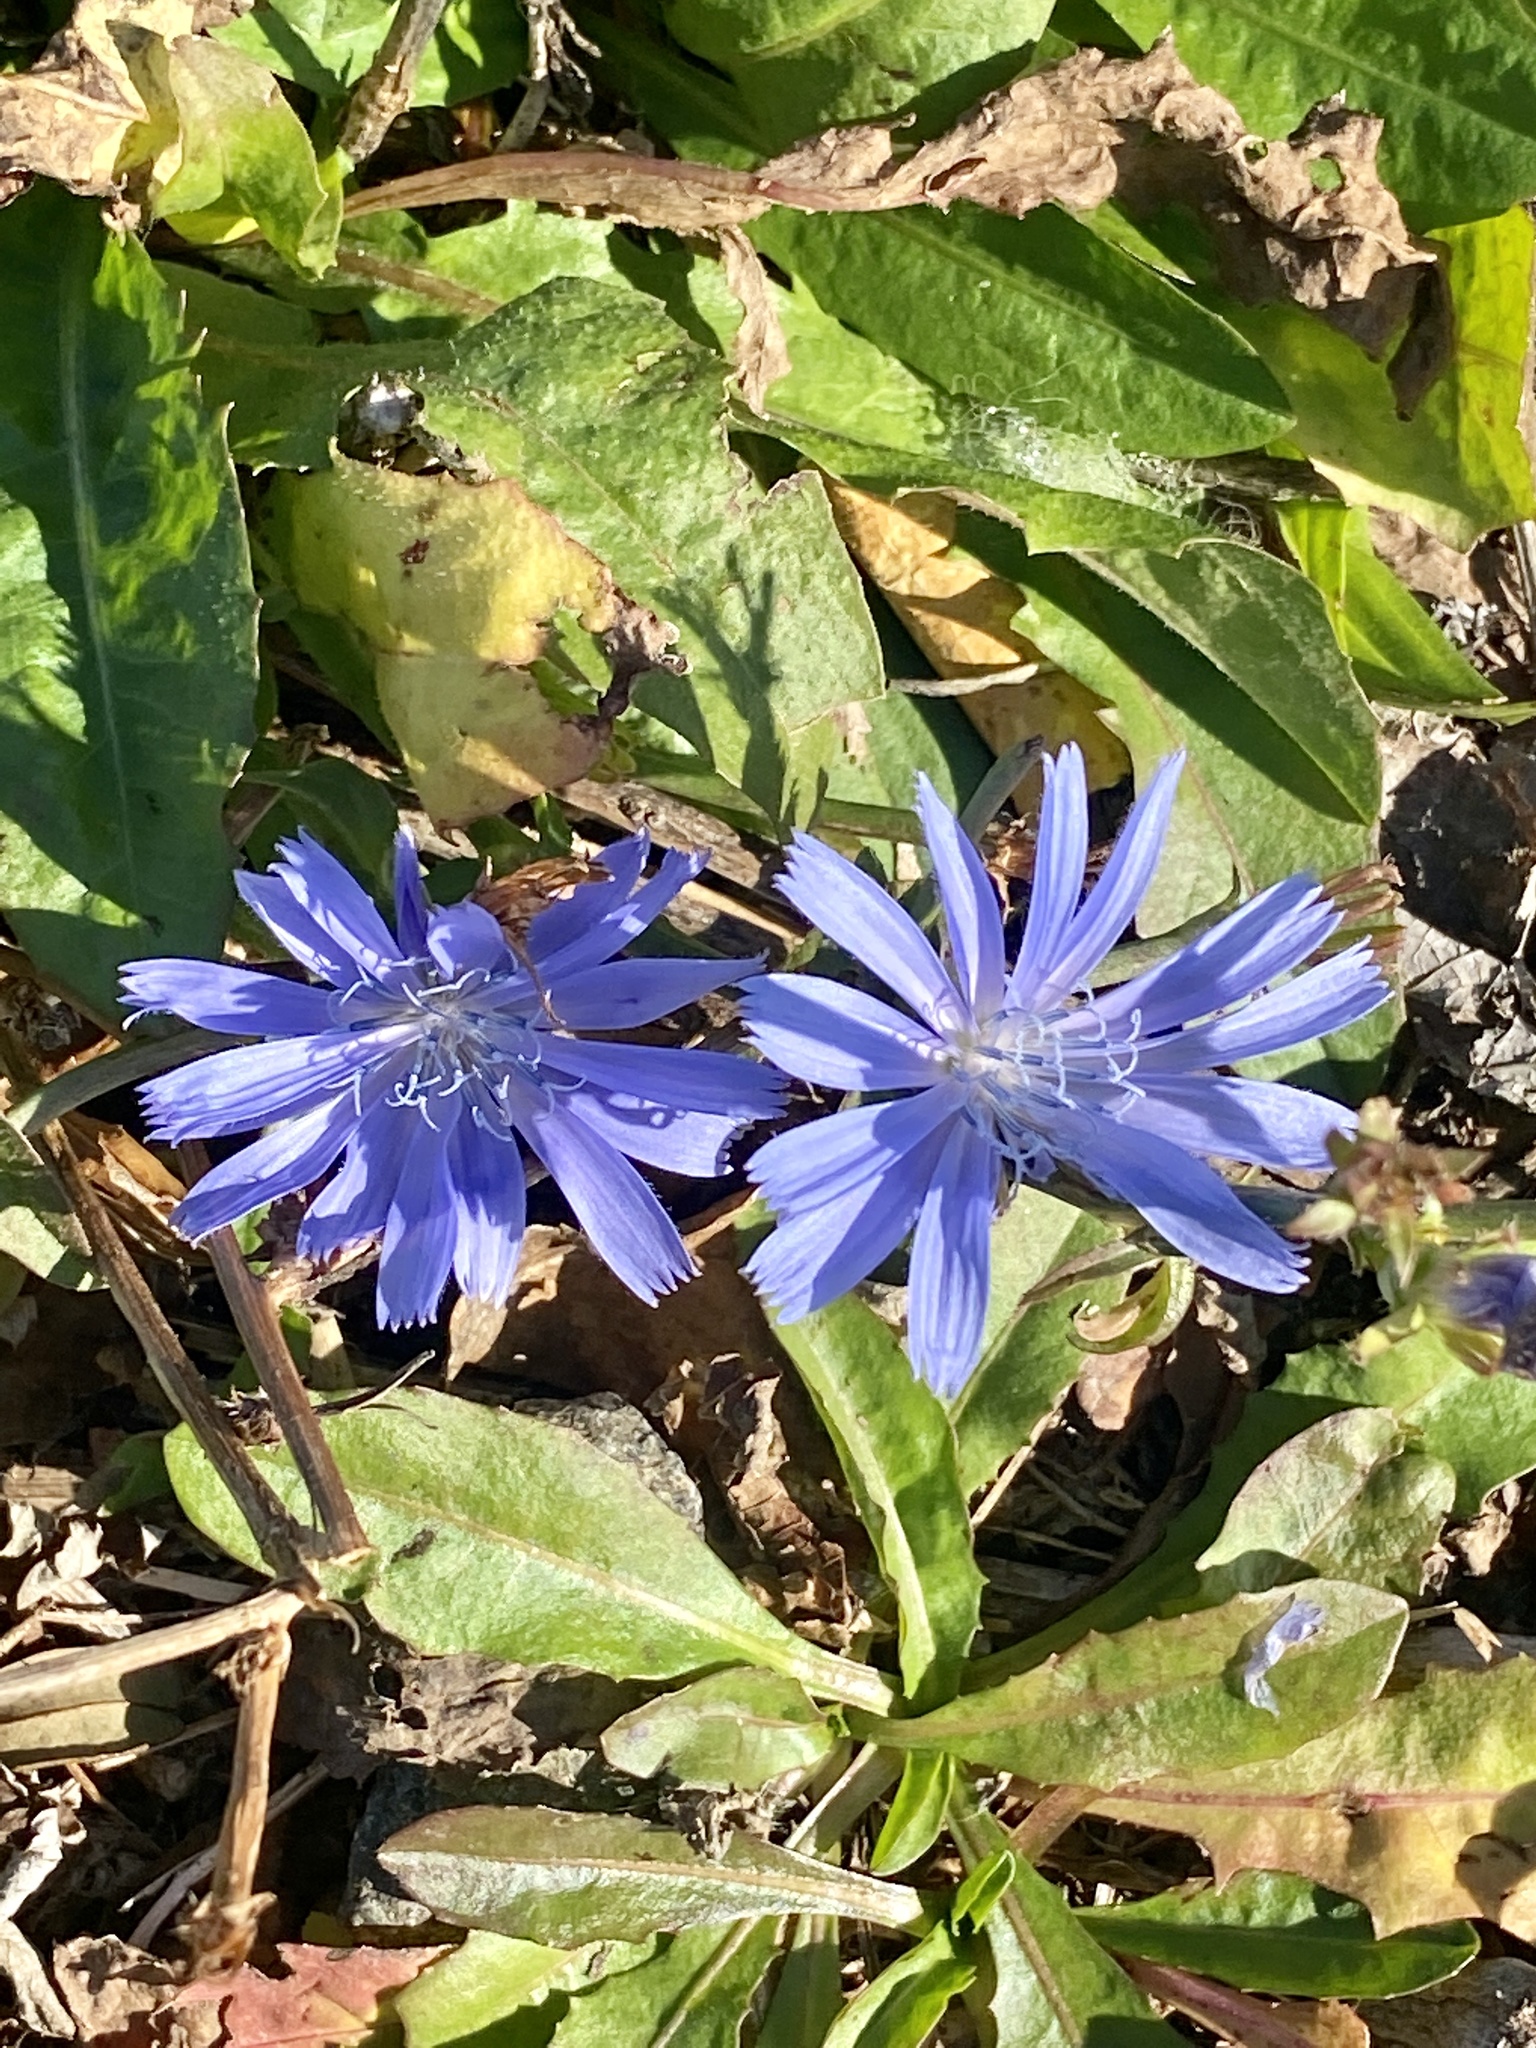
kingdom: Plantae
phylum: Tracheophyta
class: Magnoliopsida
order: Asterales
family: Asteraceae
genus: Cichorium
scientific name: Cichorium intybus
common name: Chicory
